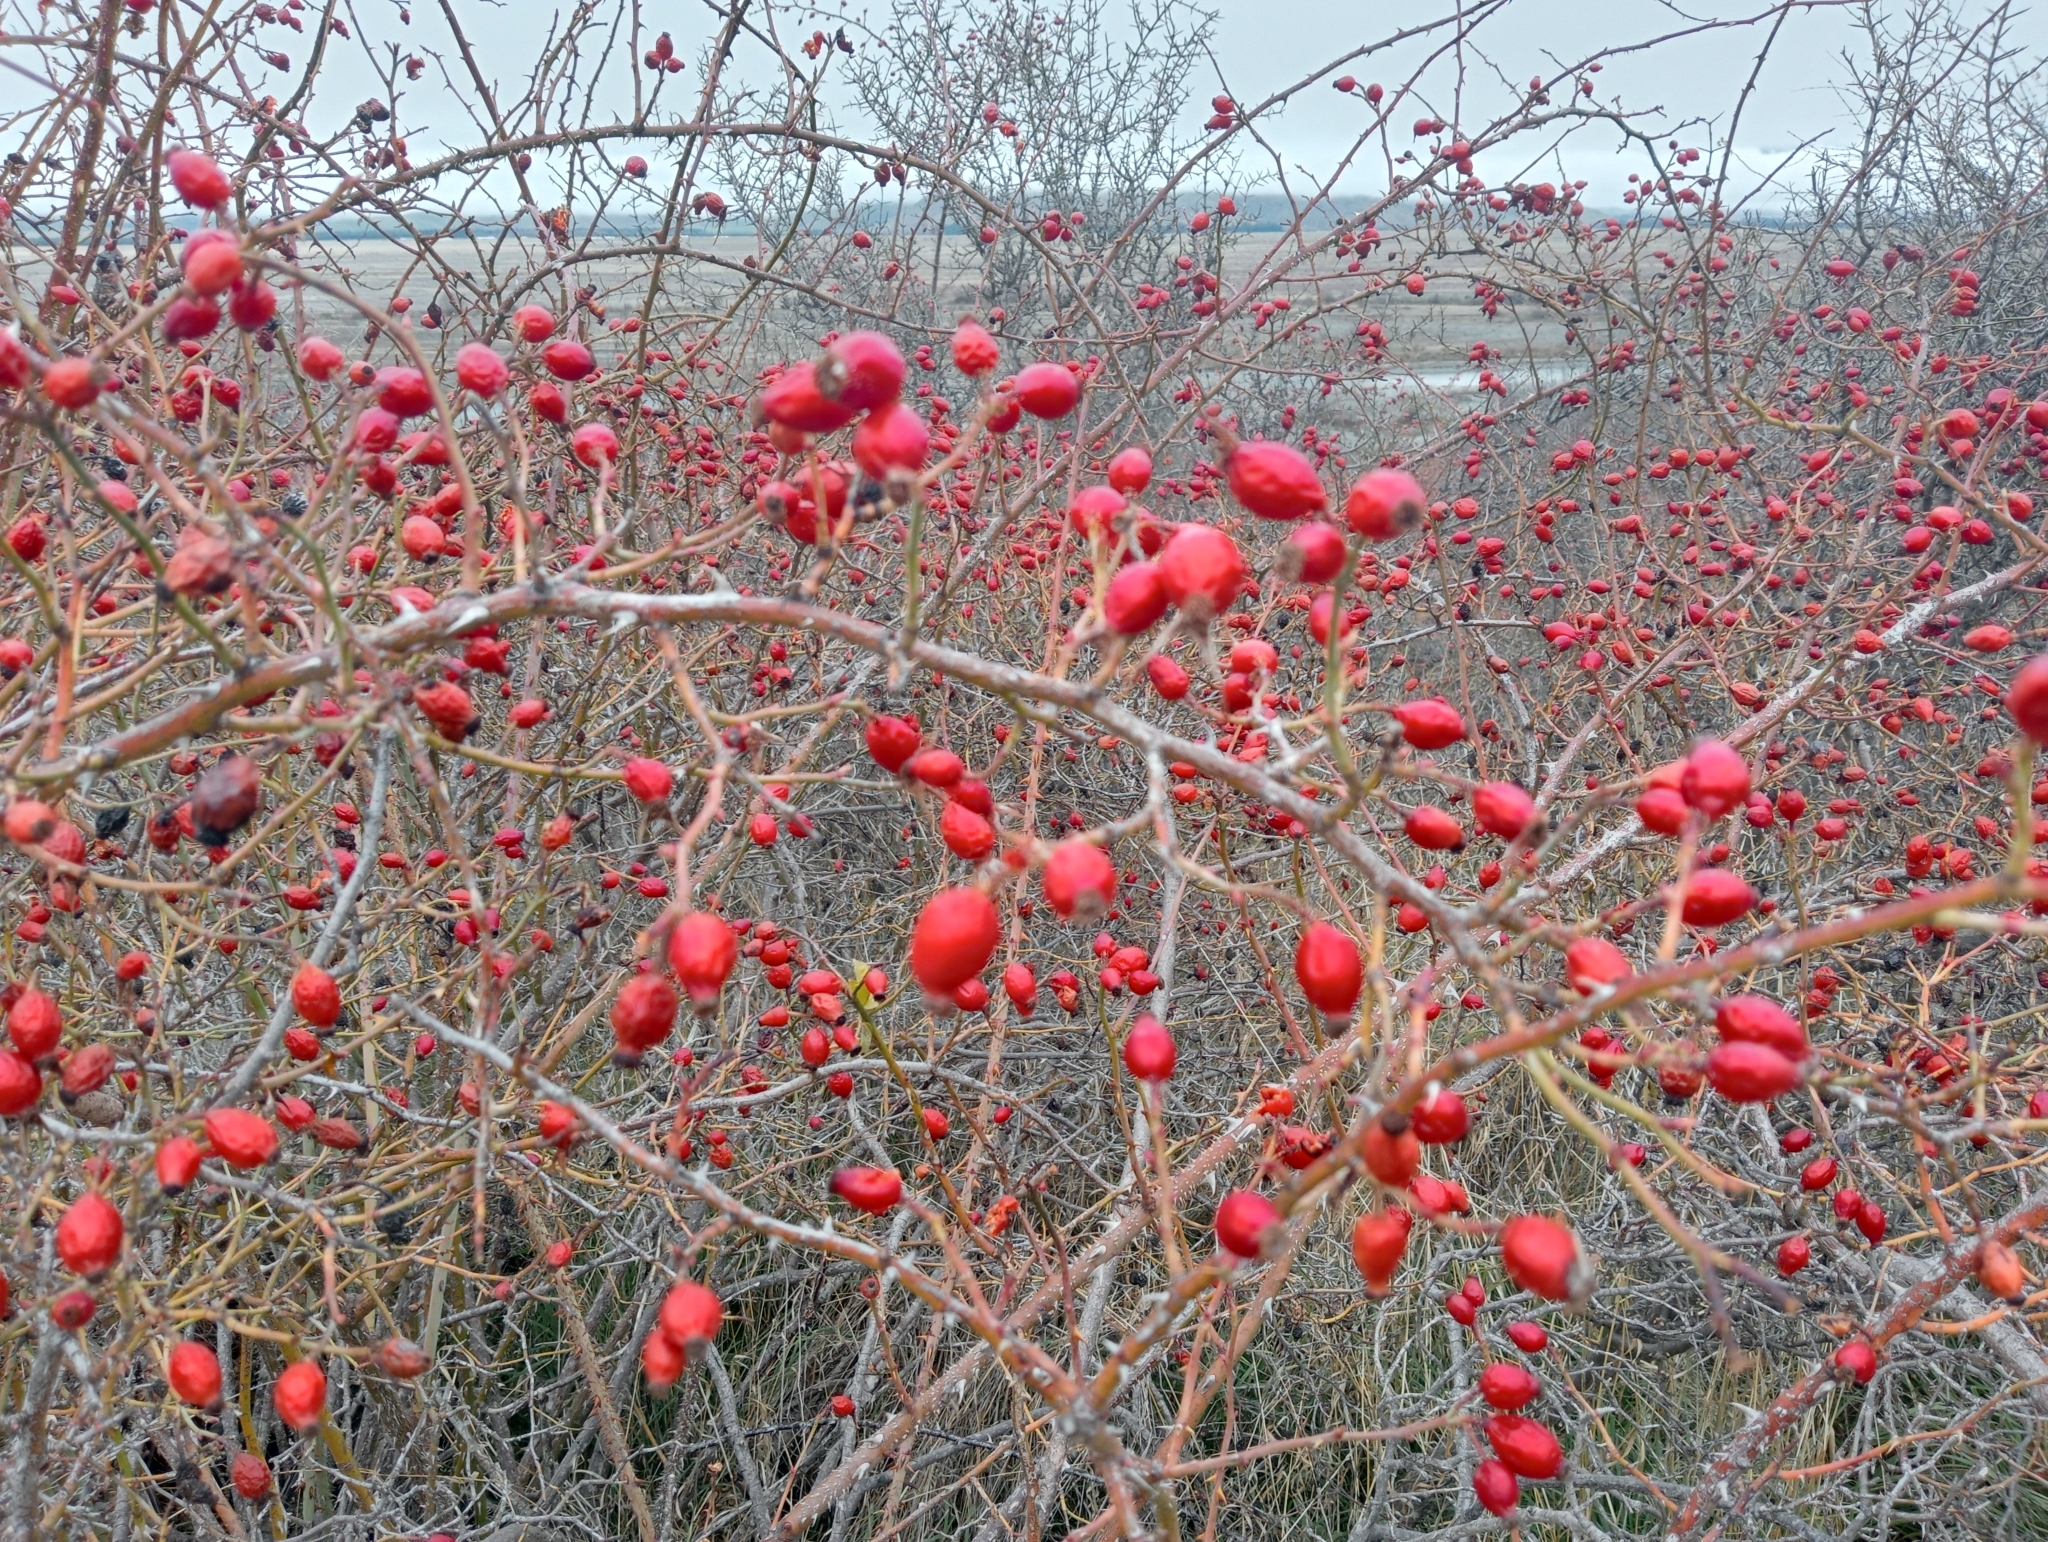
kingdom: Plantae
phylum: Tracheophyta
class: Magnoliopsida
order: Rosales
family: Rosaceae
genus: Rosa
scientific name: Rosa rubiginosa
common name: Sweet-briar
